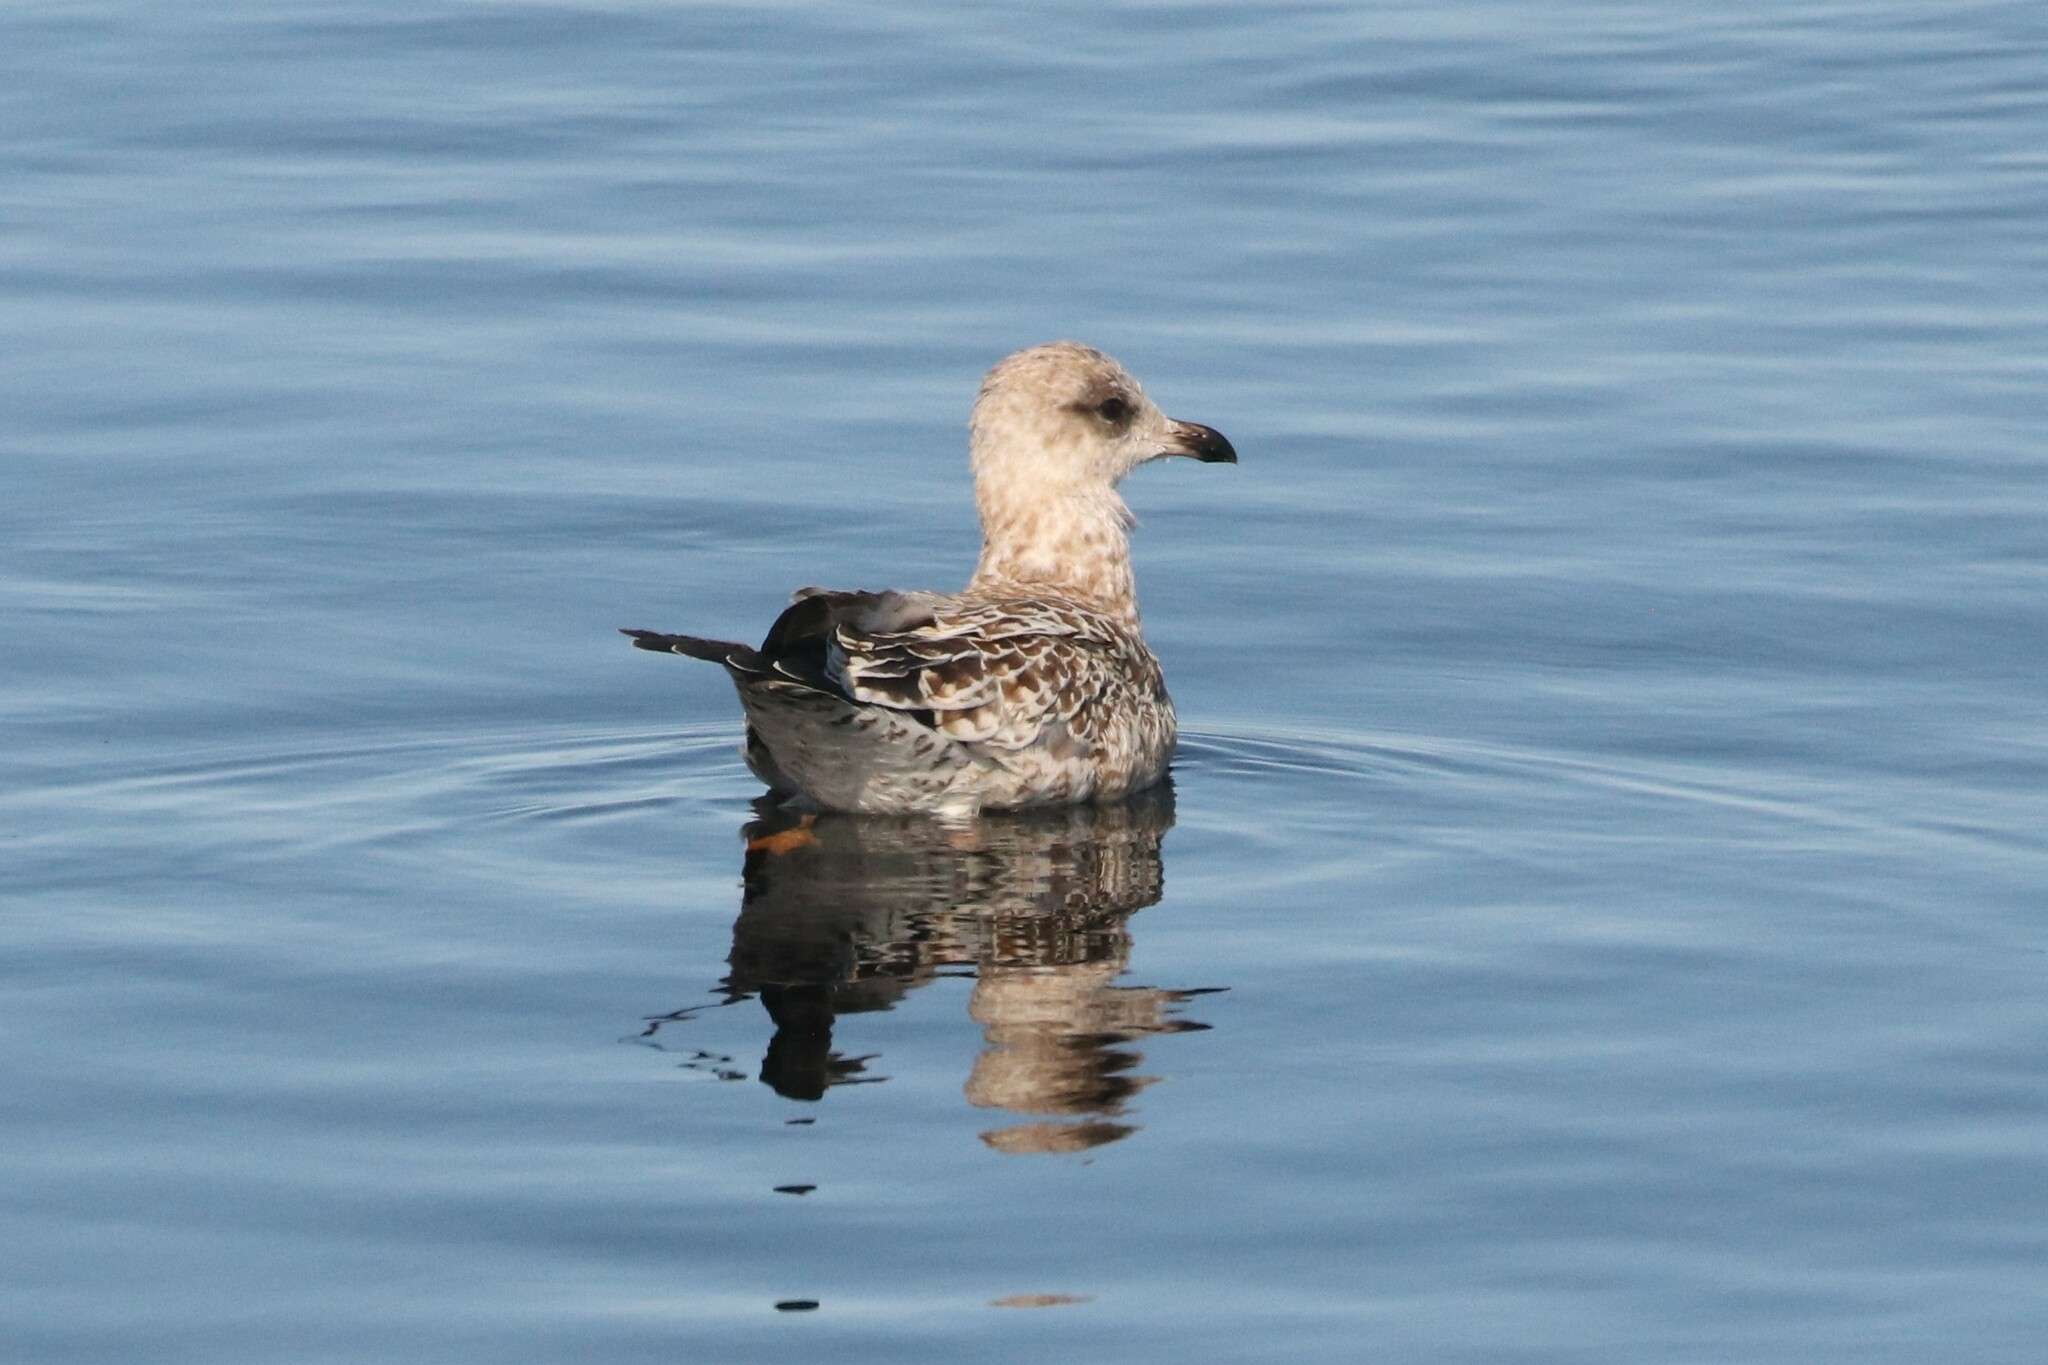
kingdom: Animalia
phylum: Chordata
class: Aves
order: Charadriiformes
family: Laridae
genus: Larus
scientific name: Larus argentatus
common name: Herring gull
